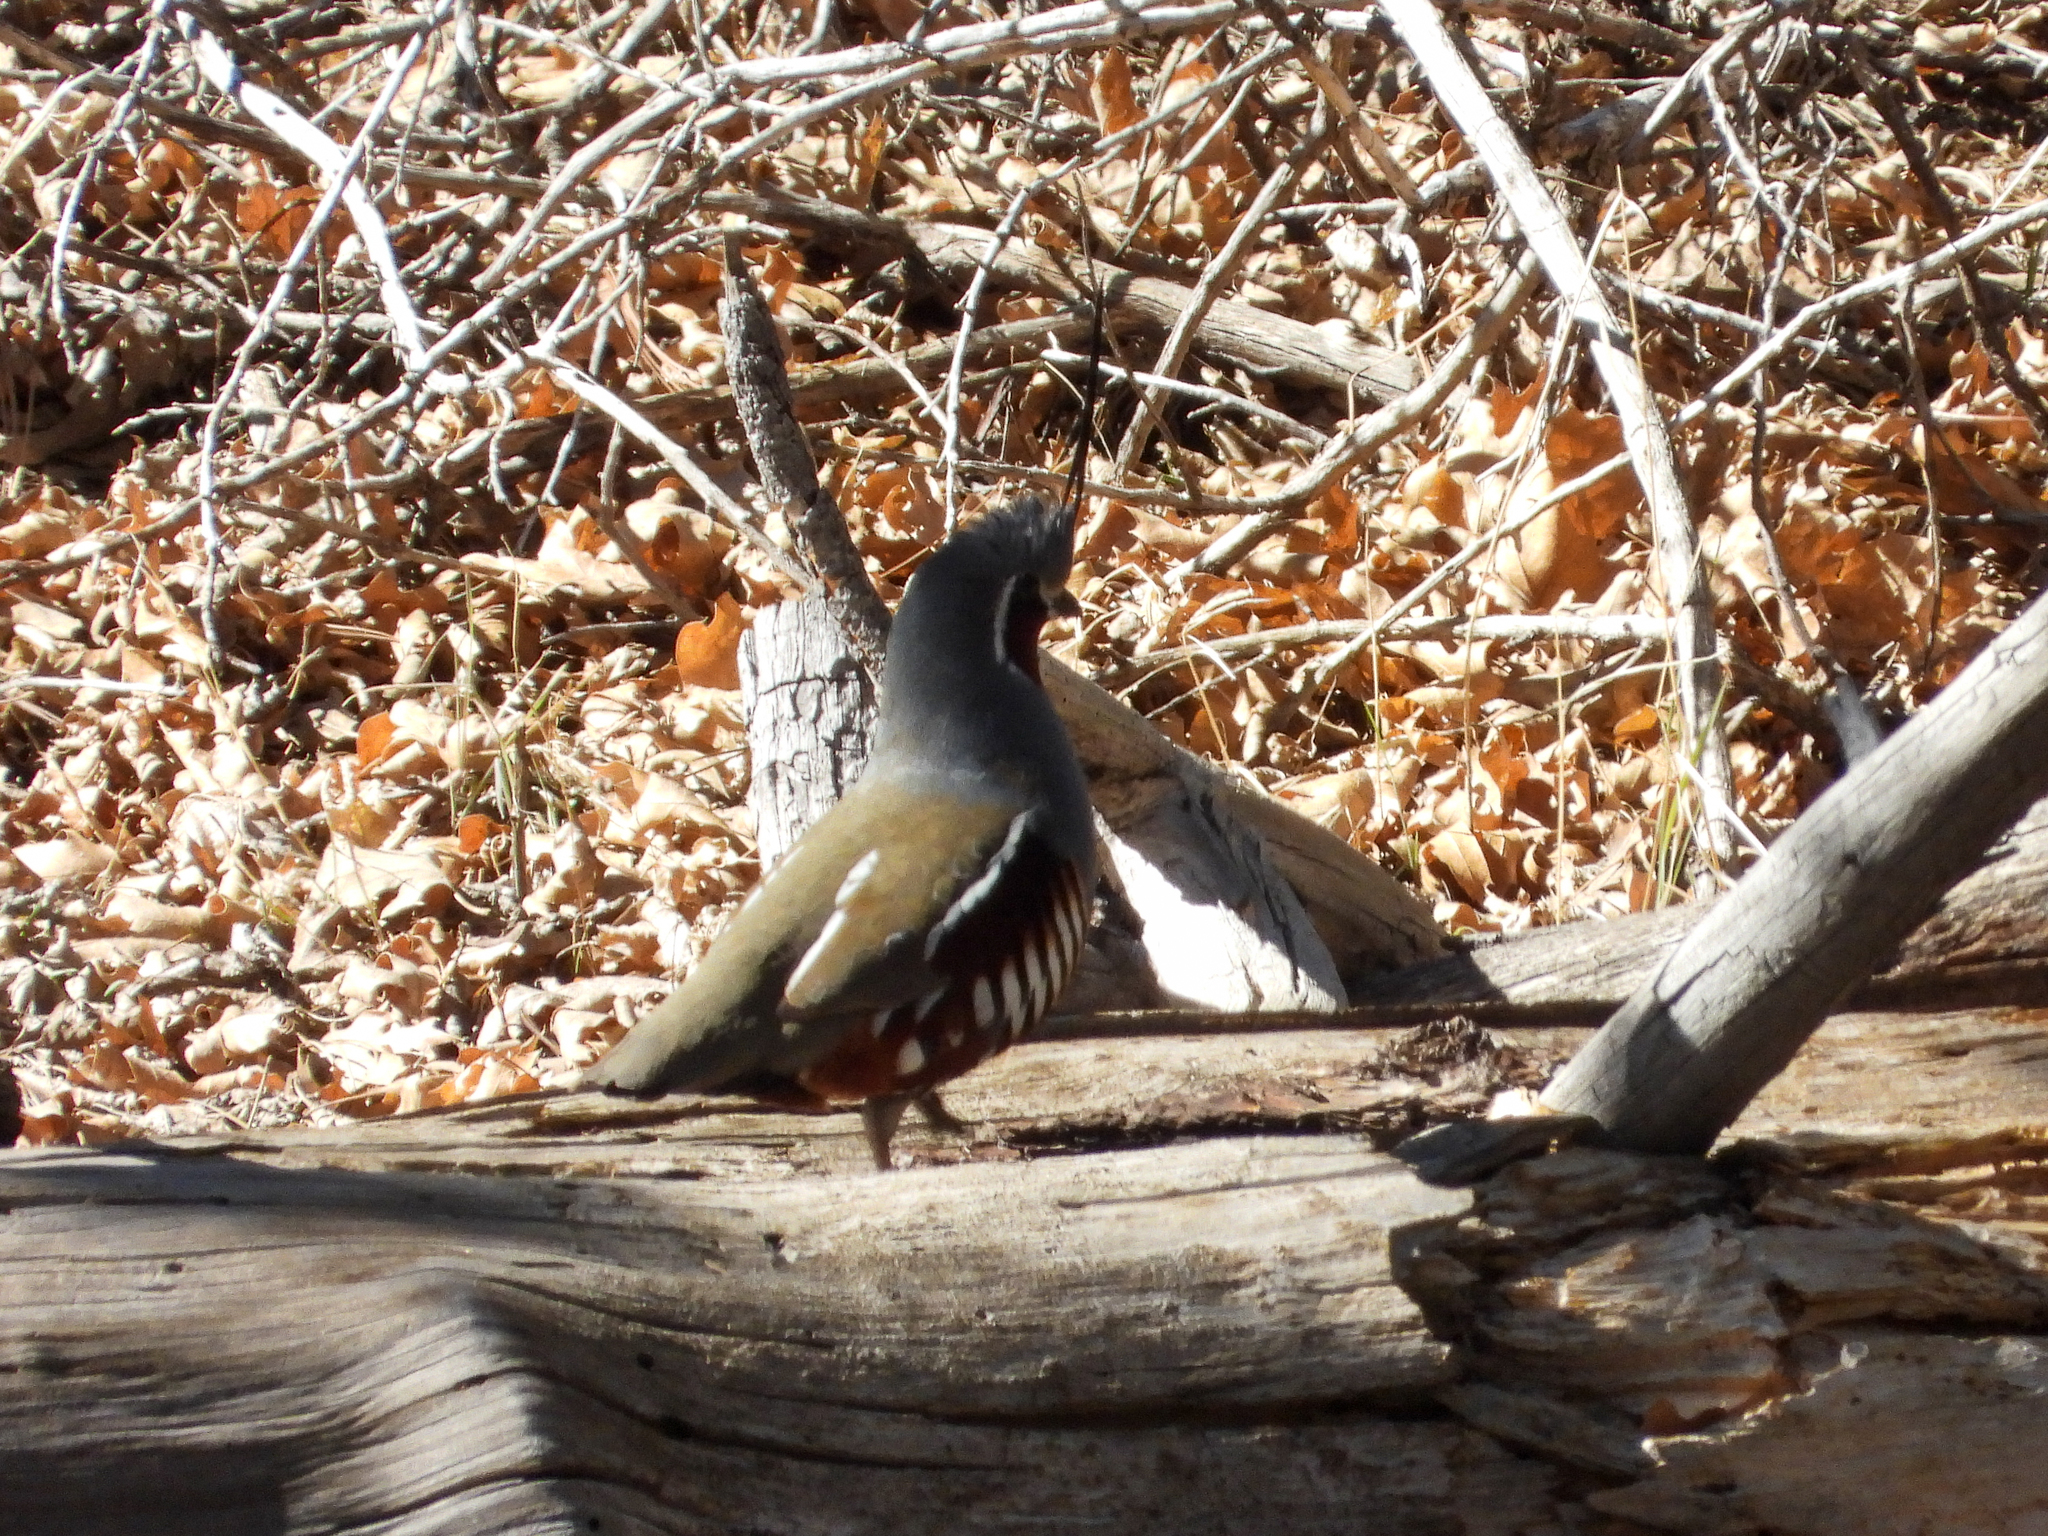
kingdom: Animalia
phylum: Chordata
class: Aves
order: Galliformes
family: Odontophoridae
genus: Oreortyx
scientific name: Oreortyx pictus
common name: Mountain quail
